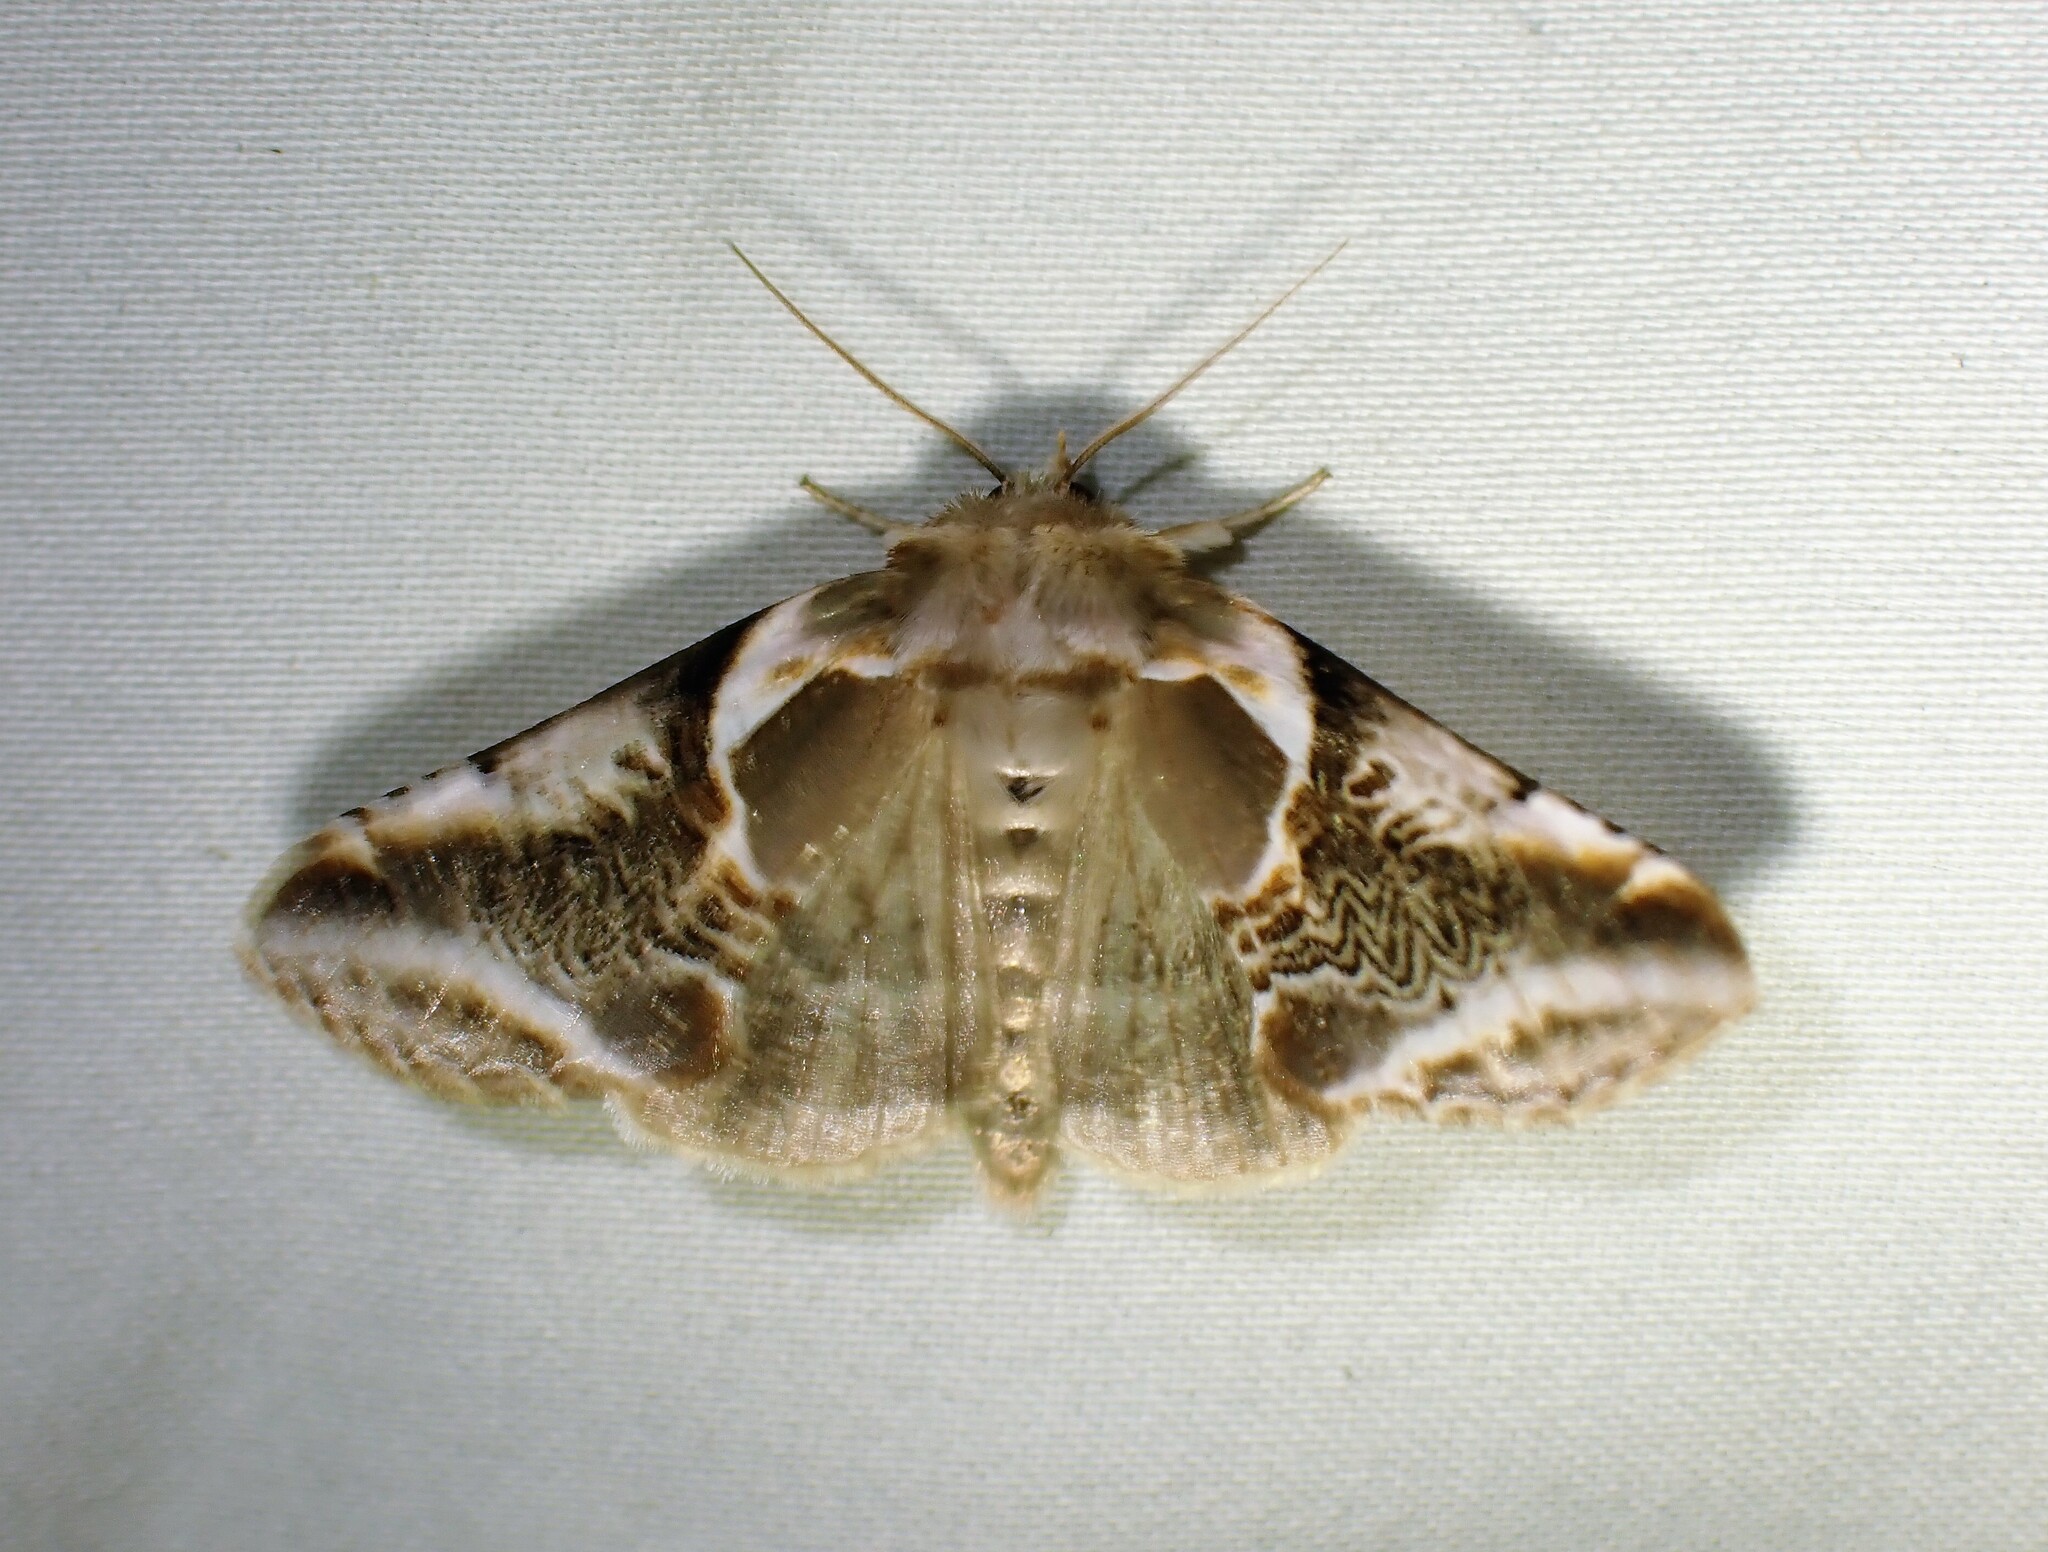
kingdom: Animalia
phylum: Arthropoda
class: Insecta
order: Lepidoptera
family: Drepanidae
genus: Habrosyne
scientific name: Habrosyne scripta
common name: Lettered habrosyne moth
